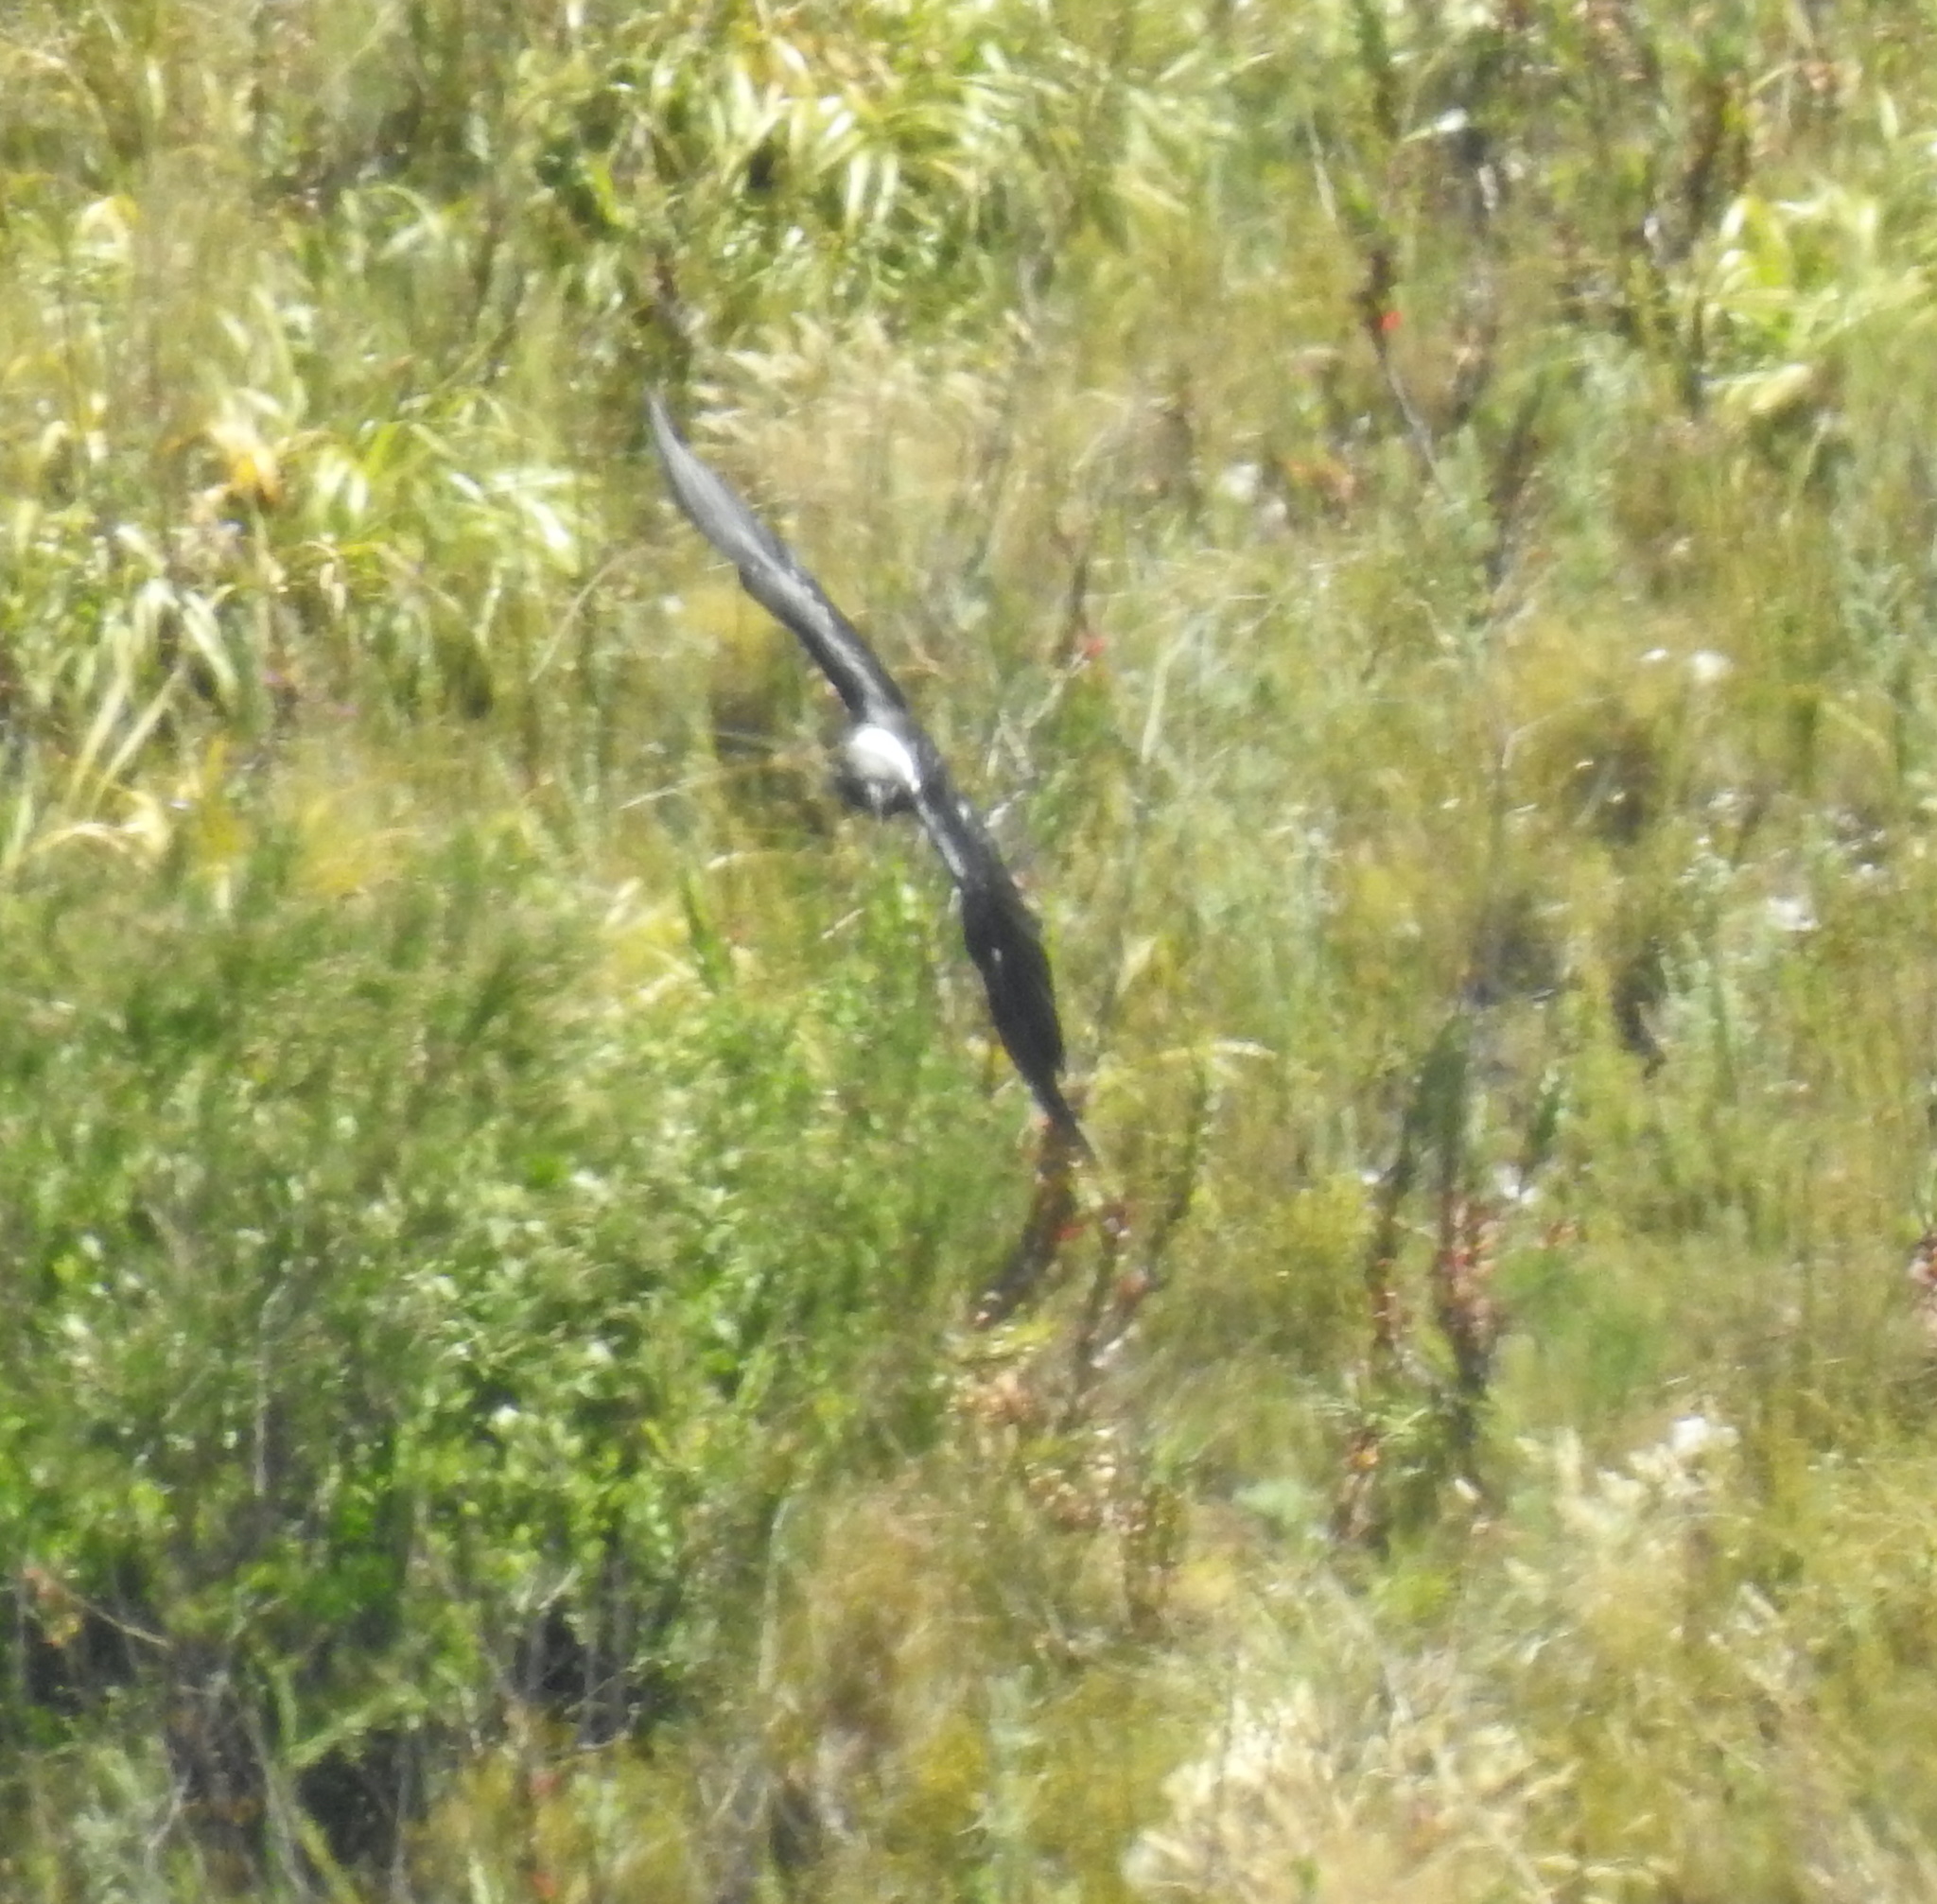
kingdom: Animalia
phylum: Chordata
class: Aves
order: Passeriformes
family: Corvidae
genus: Corvus
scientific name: Corvus albicollis
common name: White-necked raven
